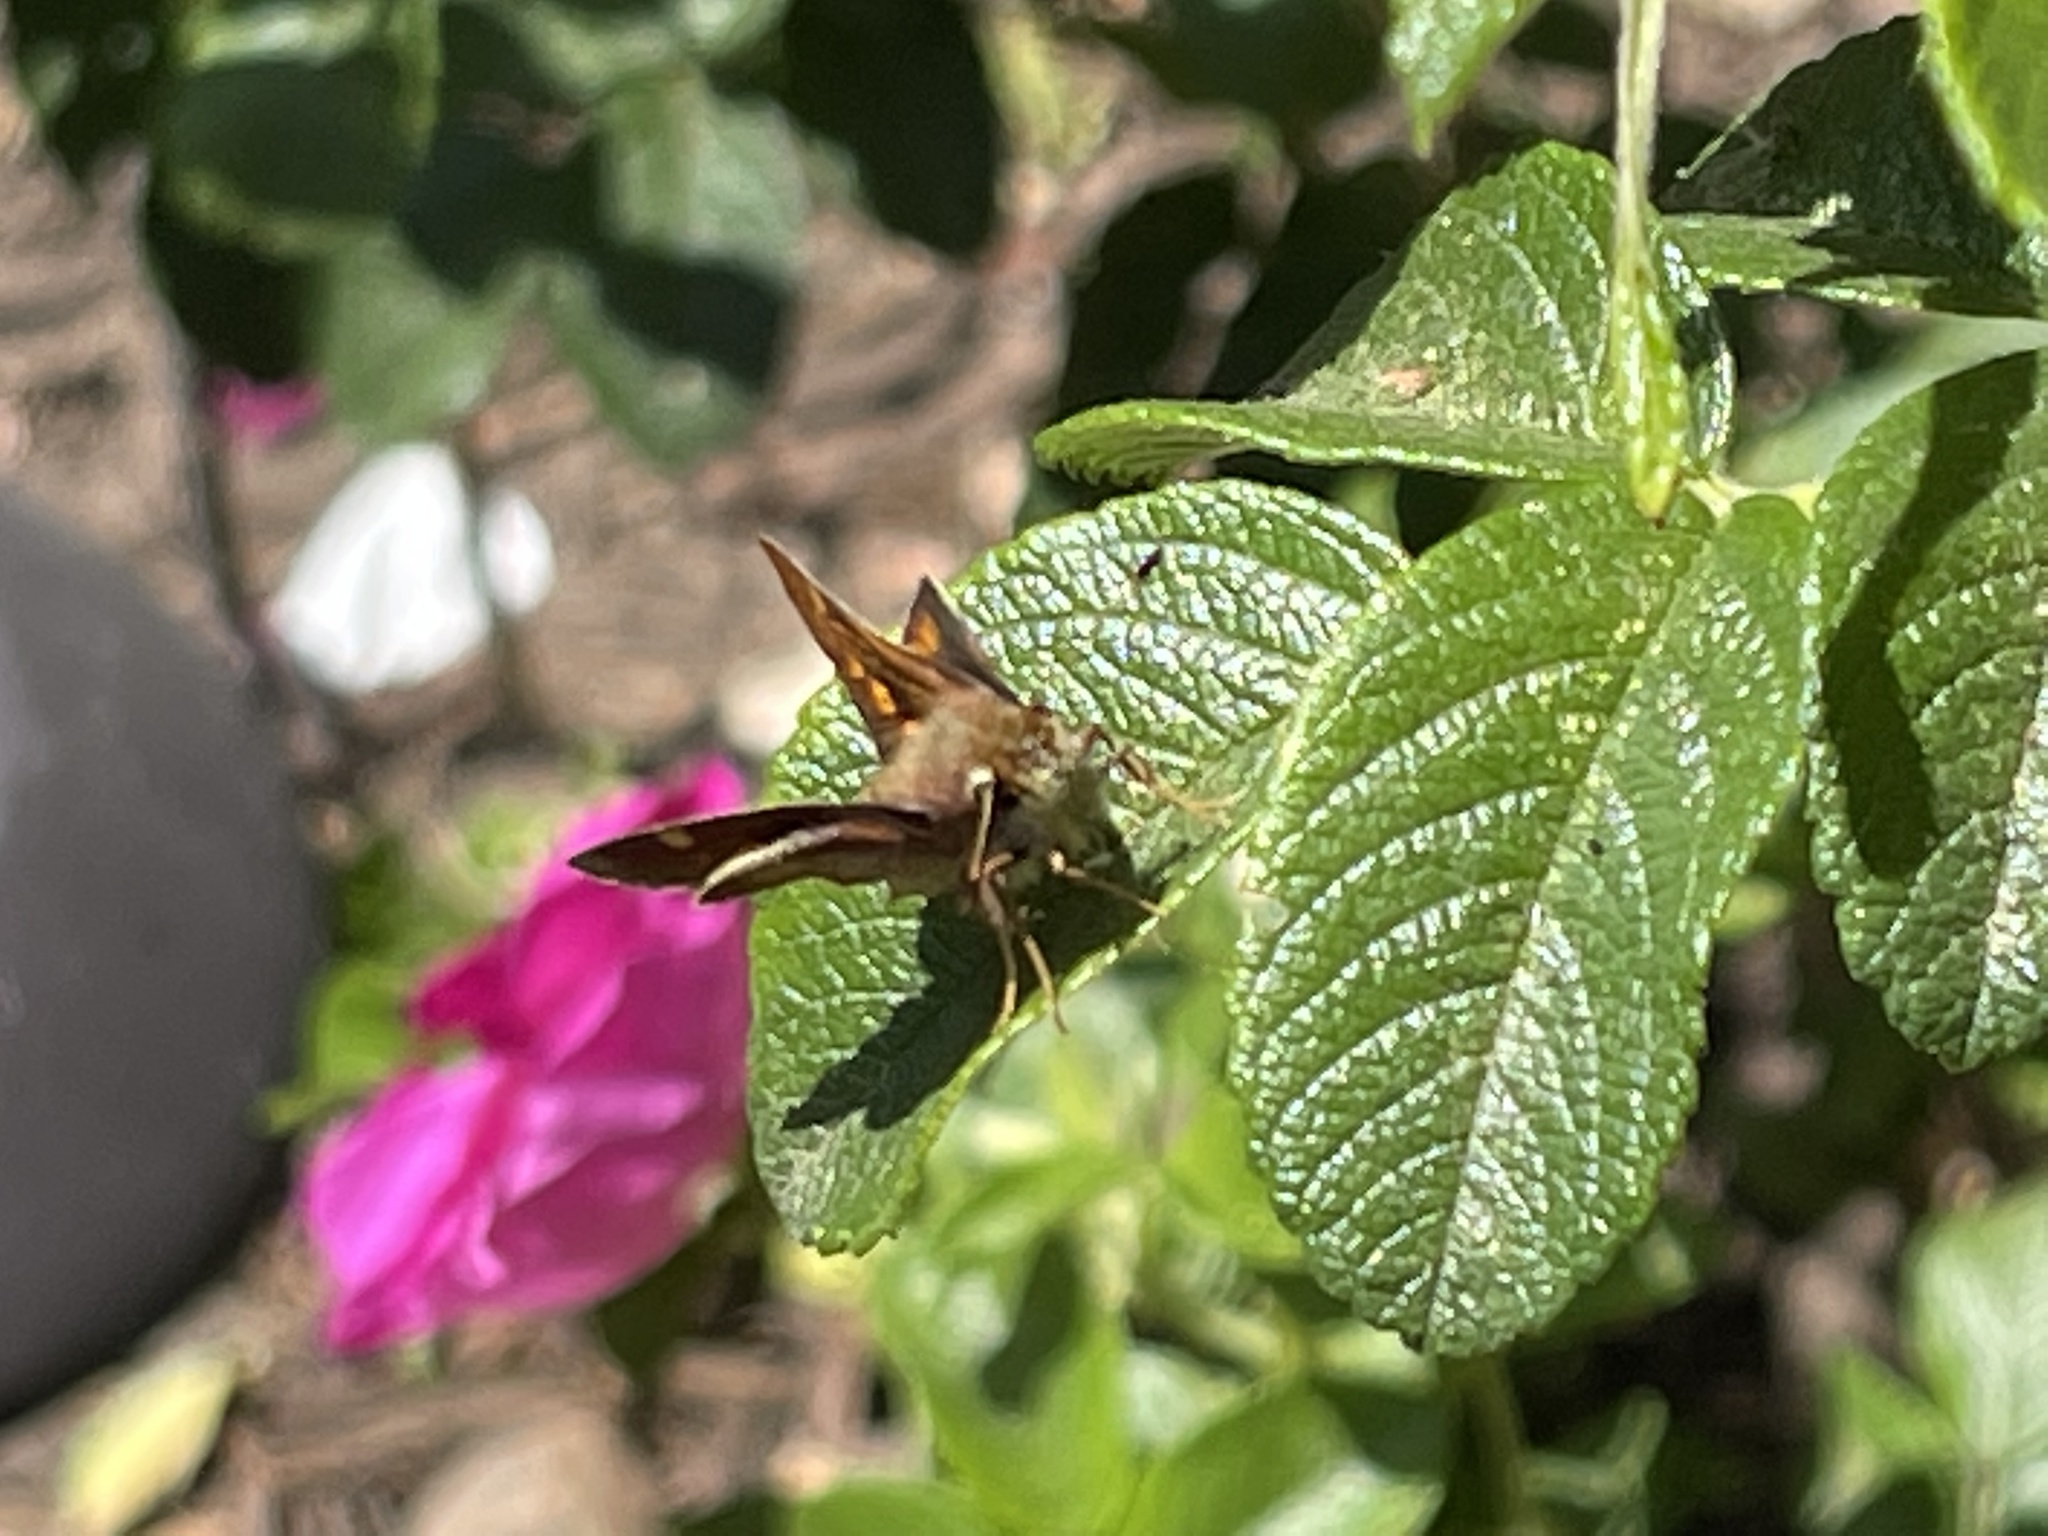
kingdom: Animalia
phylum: Arthropoda
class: Insecta
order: Lepidoptera
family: Hesperiidae
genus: Lon
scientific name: Lon melane
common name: Umber skipper
